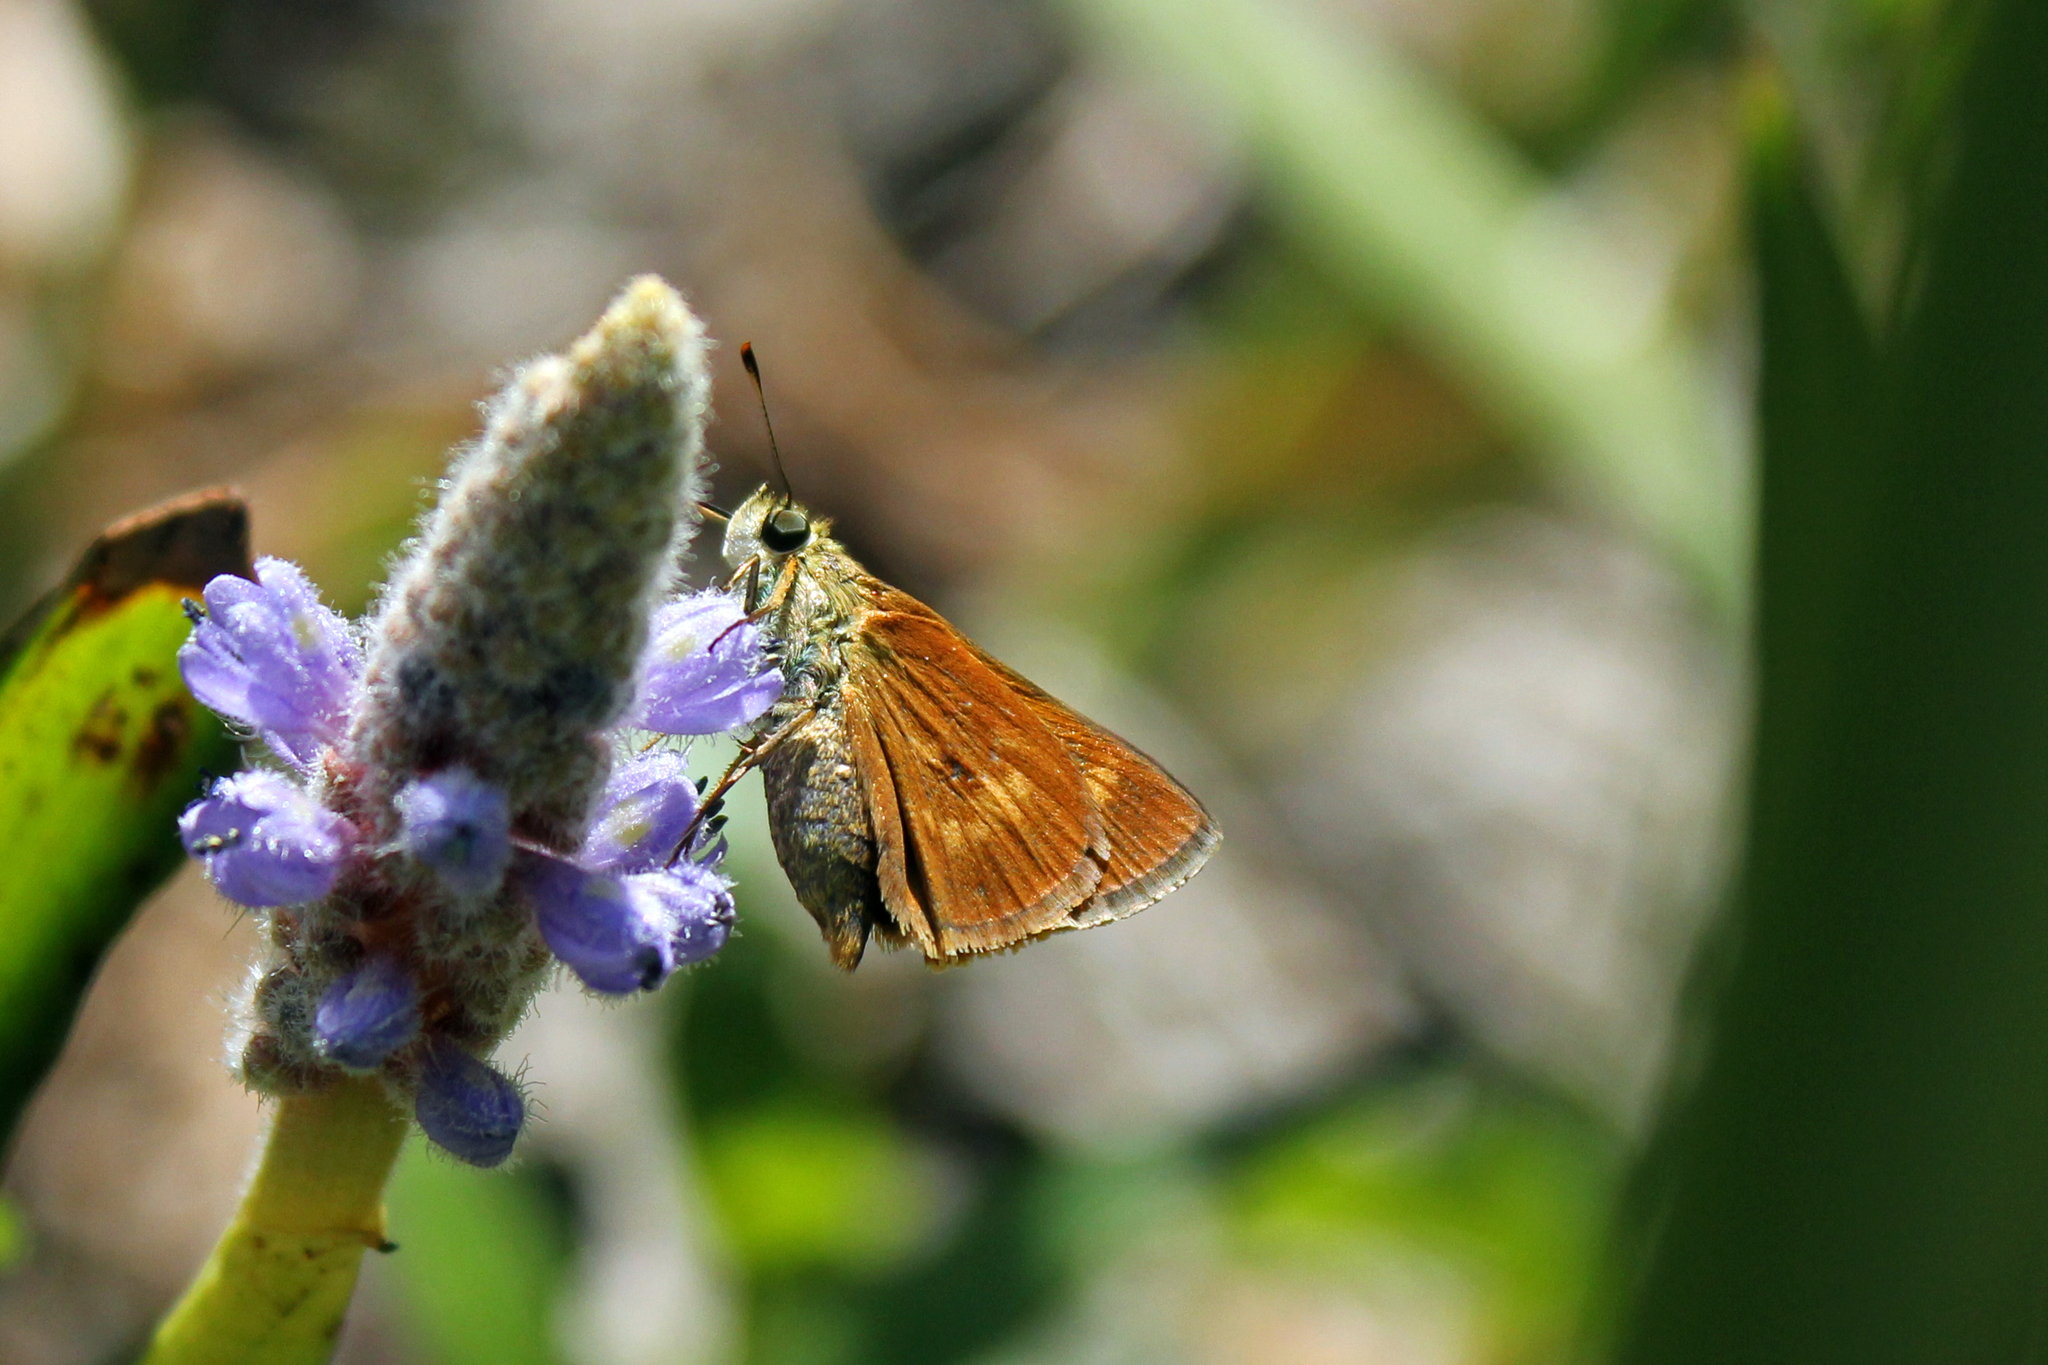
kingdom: Animalia
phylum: Arthropoda
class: Insecta
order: Lepidoptera
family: Hesperiidae
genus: Polites
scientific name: Polites otho
